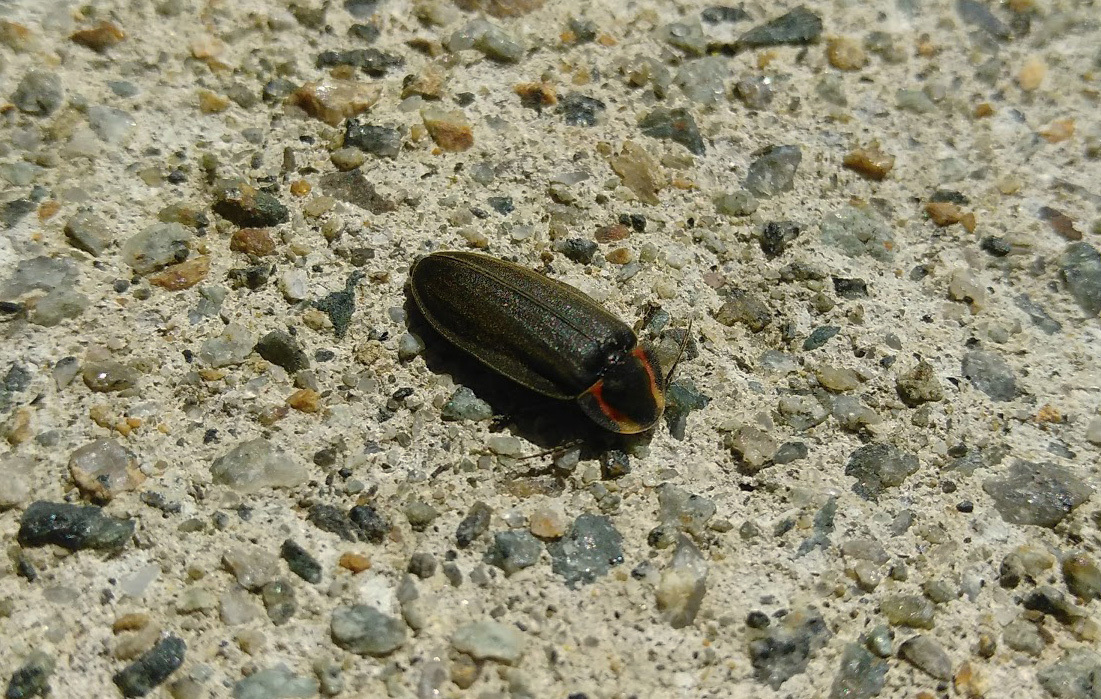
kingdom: Animalia
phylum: Arthropoda
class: Insecta
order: Coleoptera
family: Lampyridae
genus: Photinus
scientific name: Photinus corrusca
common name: Winter firefly
